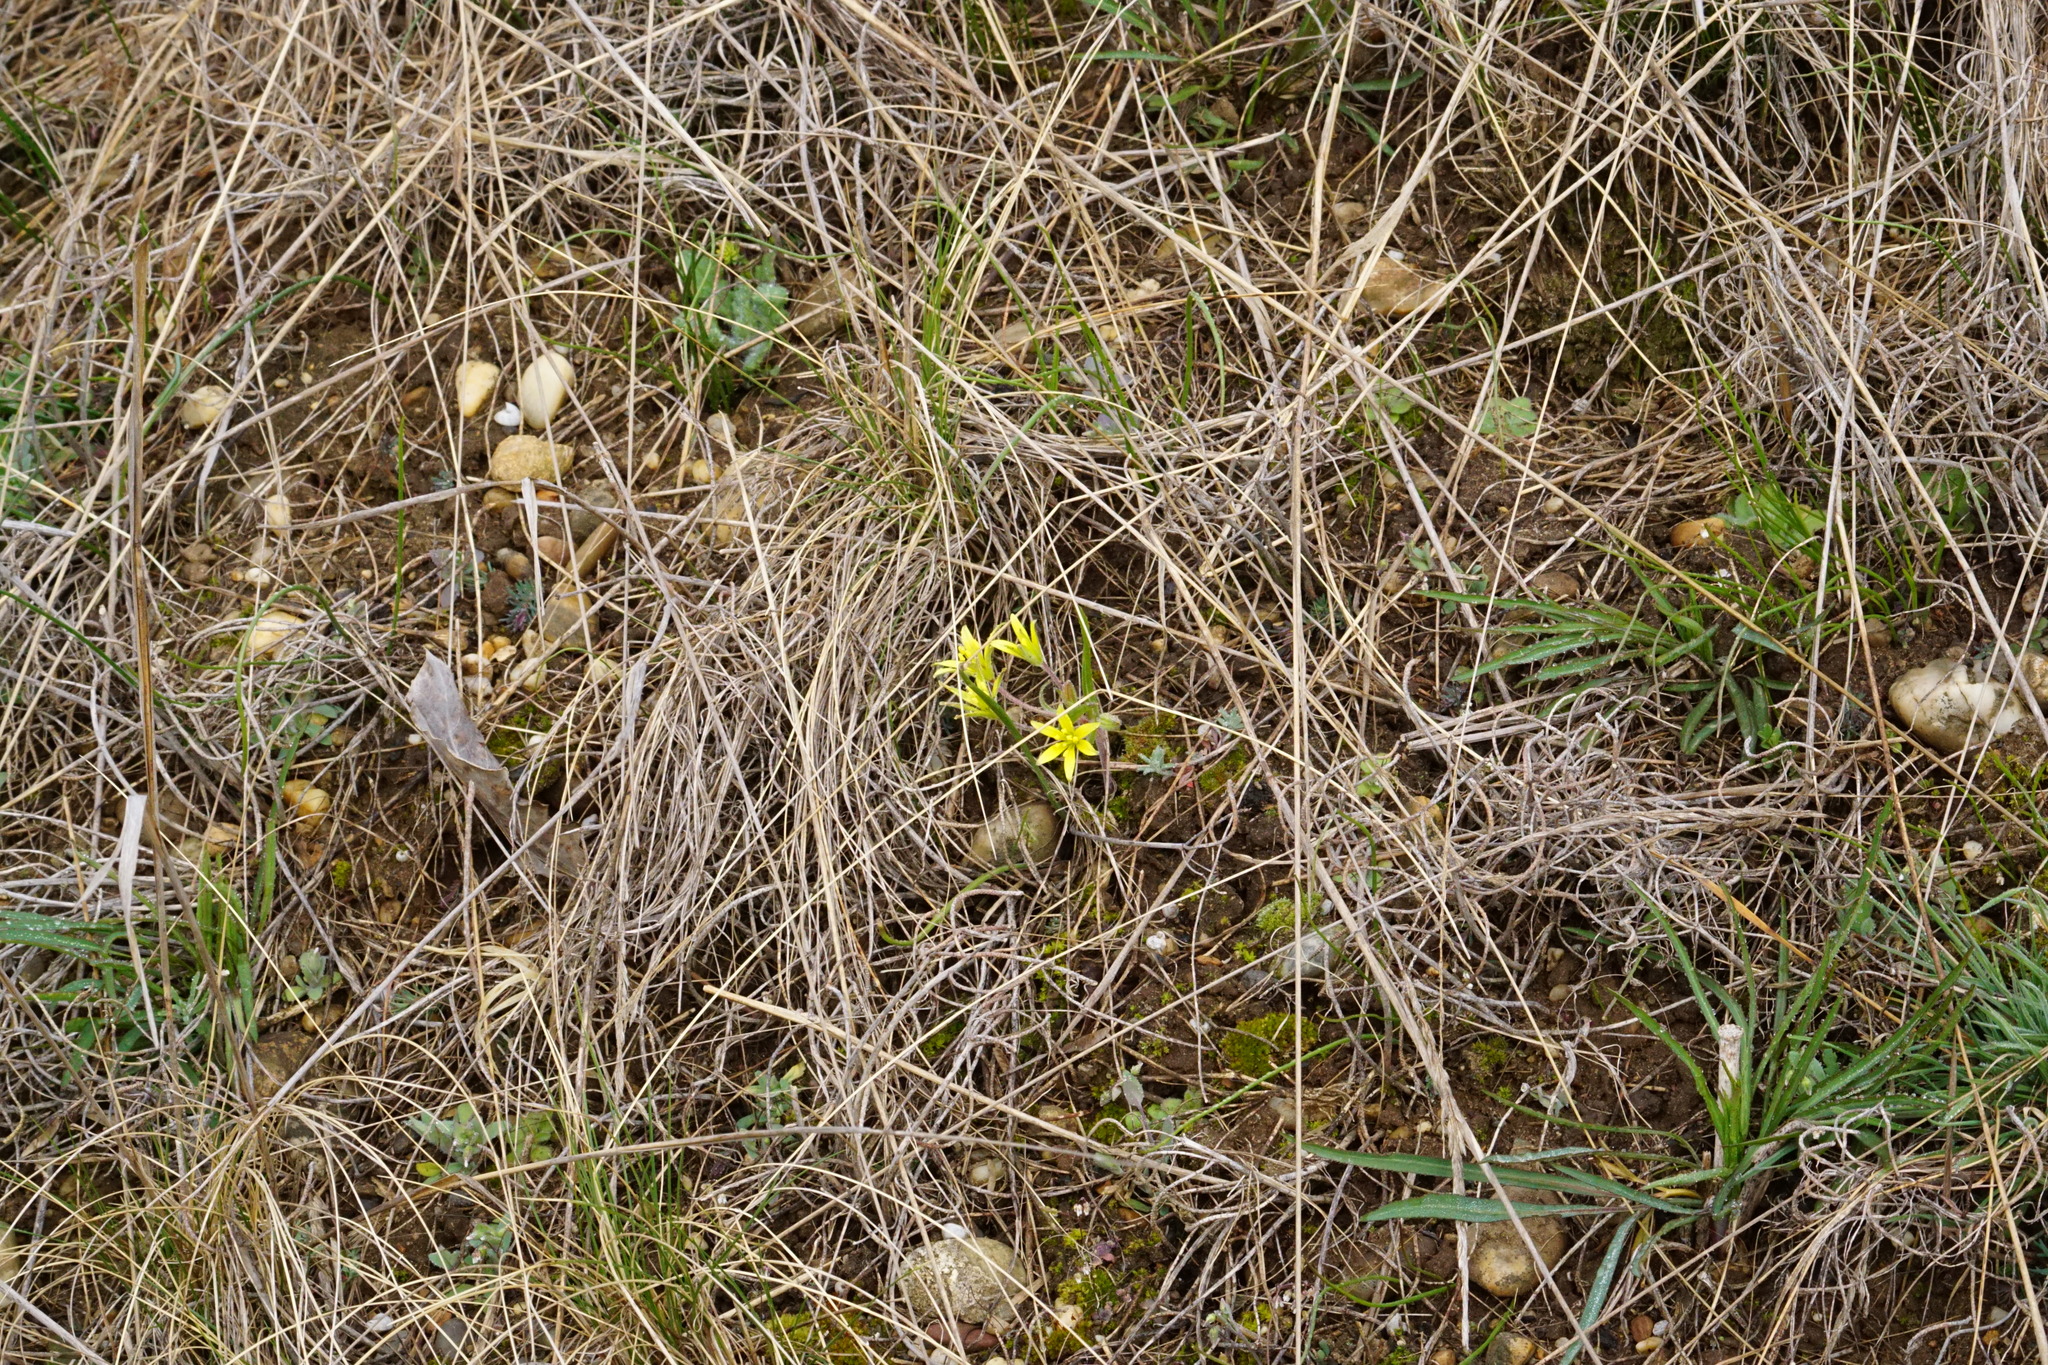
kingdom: Plantae
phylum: Tracheophyta
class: Liliopsida
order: Liliales
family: Liliaceae
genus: Gagea
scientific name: Gagea villosa
